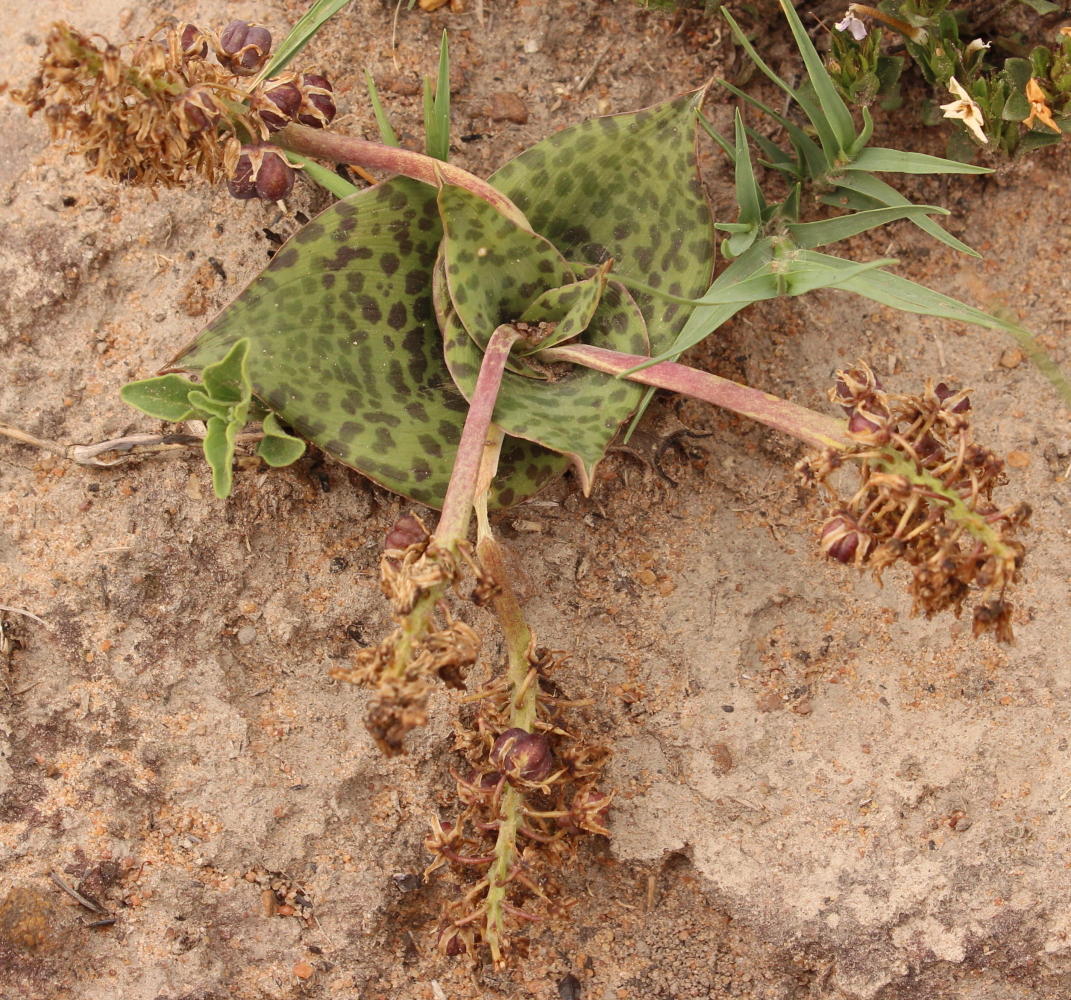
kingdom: Plantae
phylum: Tracheophyta
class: Liliopsida
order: Asparagales
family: Asparagaceae
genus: Ledebouria
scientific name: Ledebouria ovatifolia
